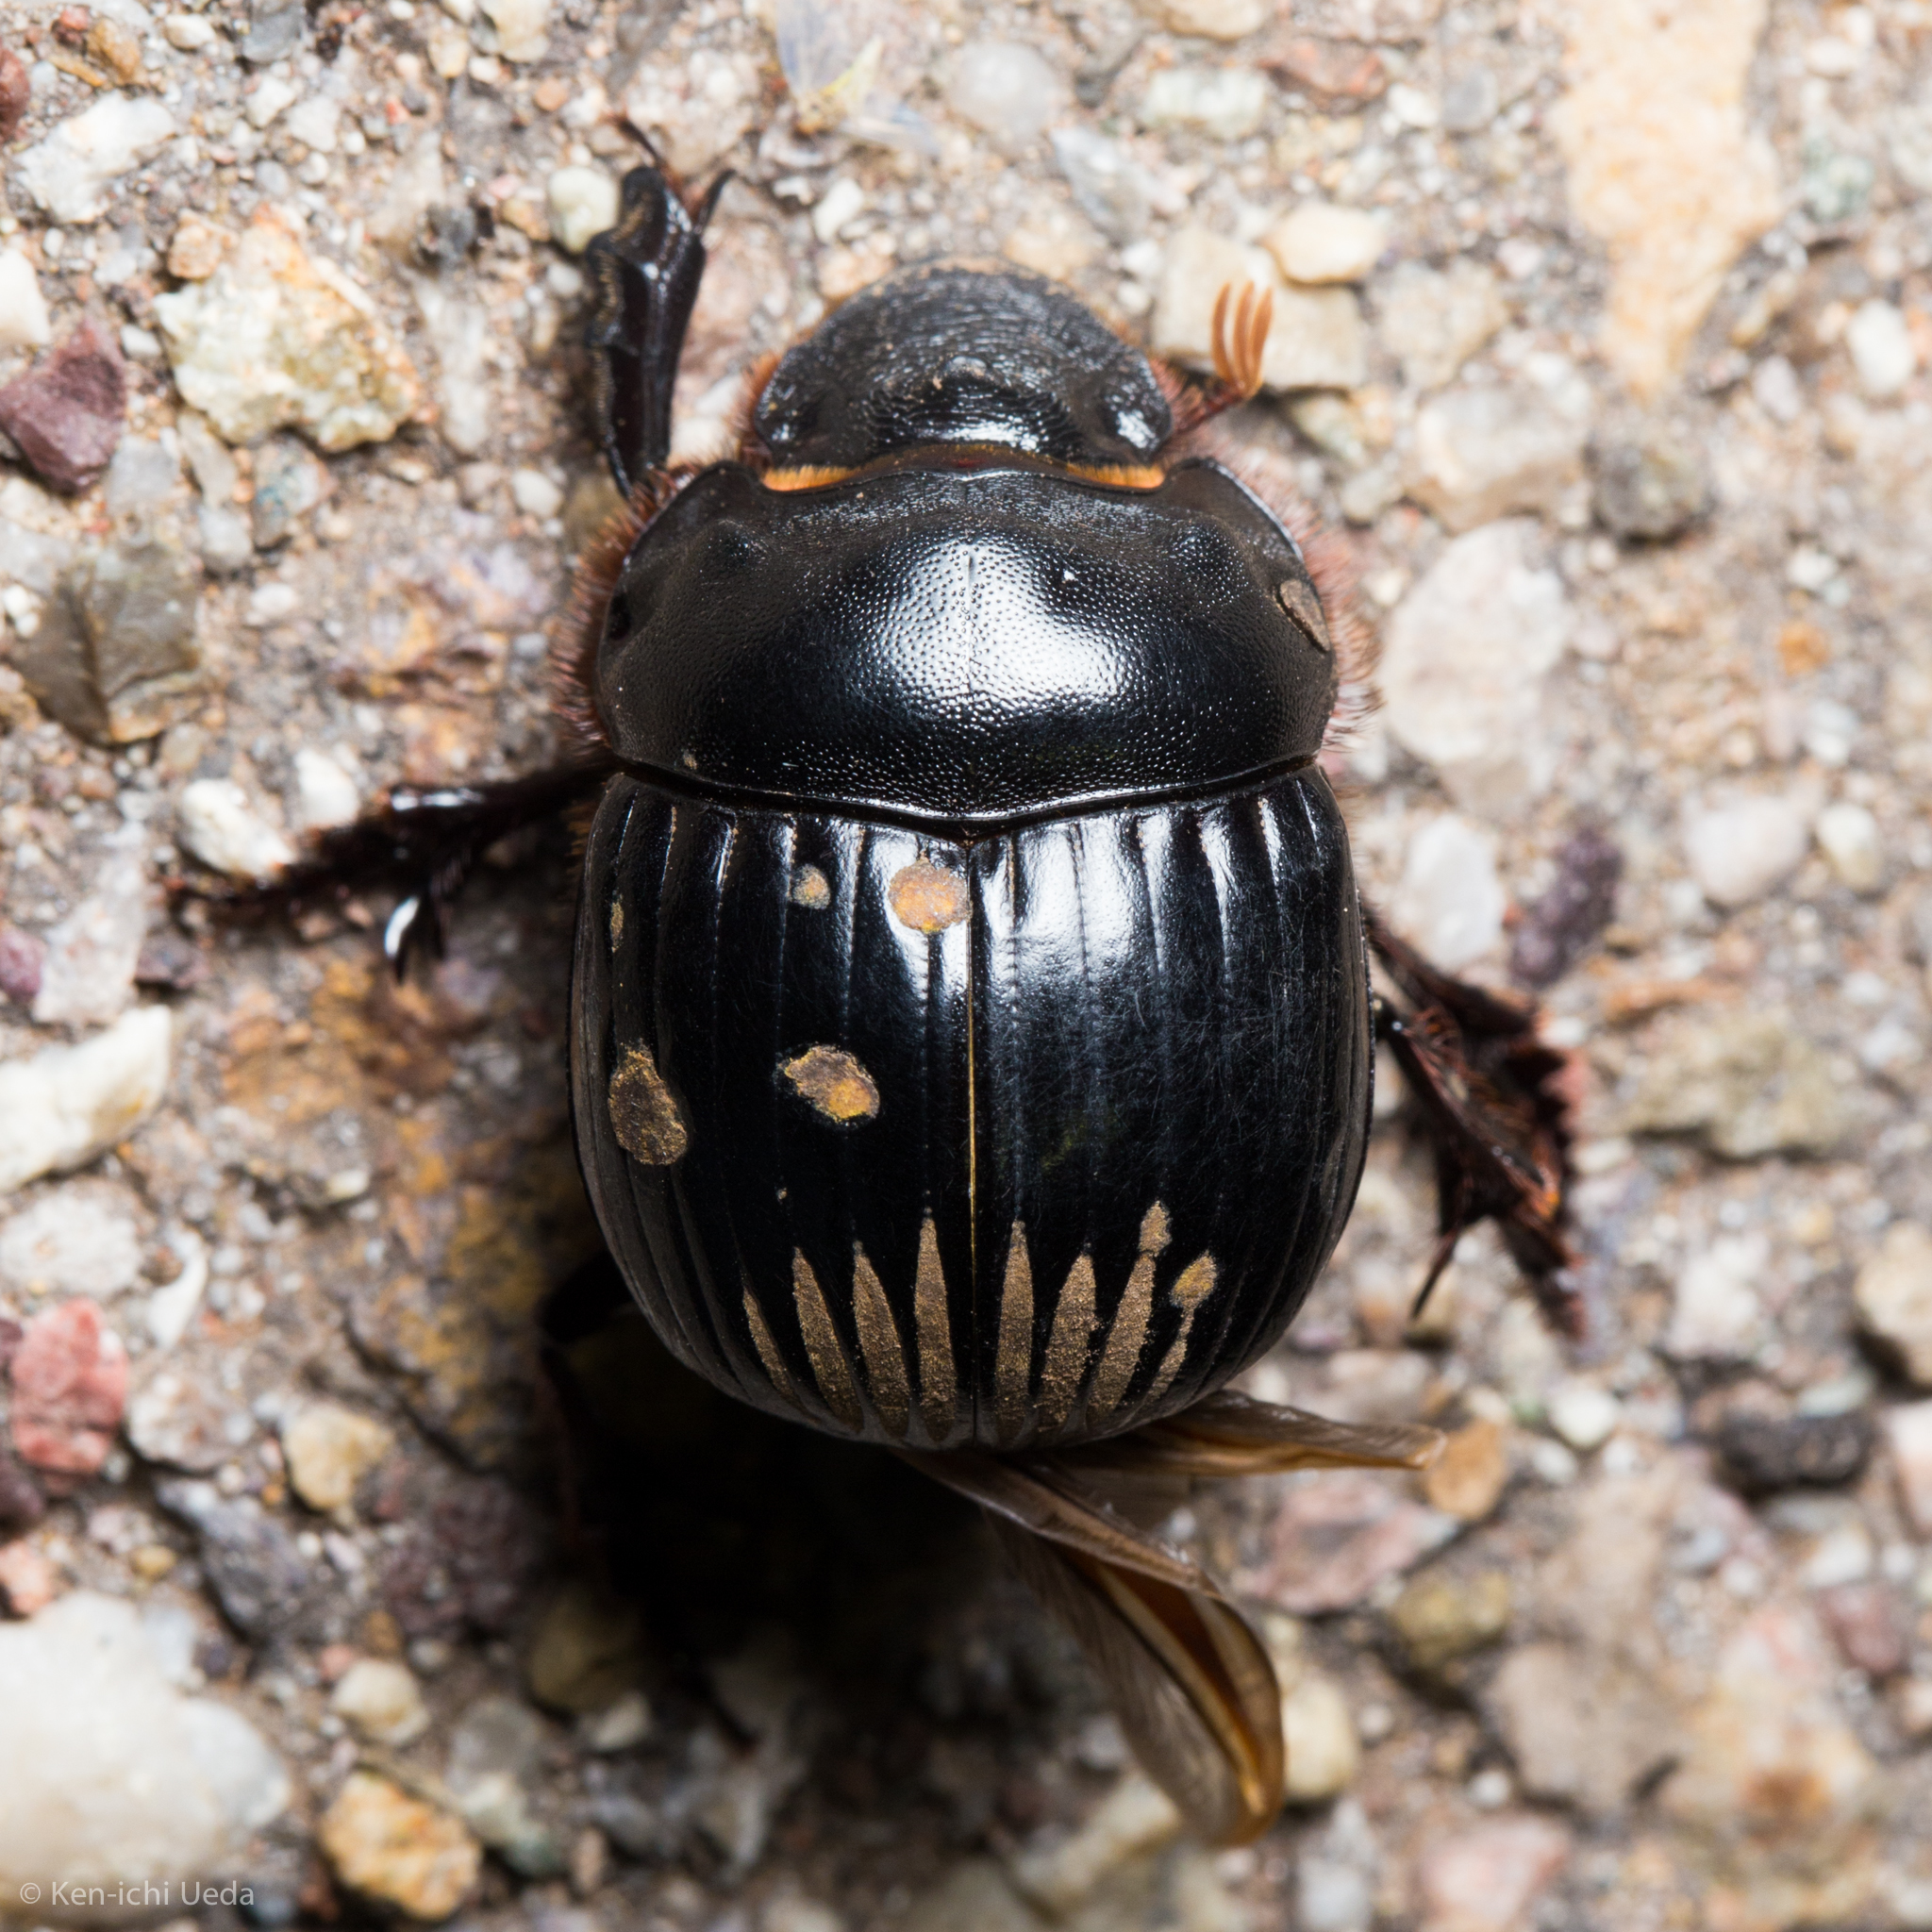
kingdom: Animalia
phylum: Arthropoda
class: Insecta
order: Coleoptera
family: Scarabaeidae
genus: Dichotomius
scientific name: Dichotomius colonicus
